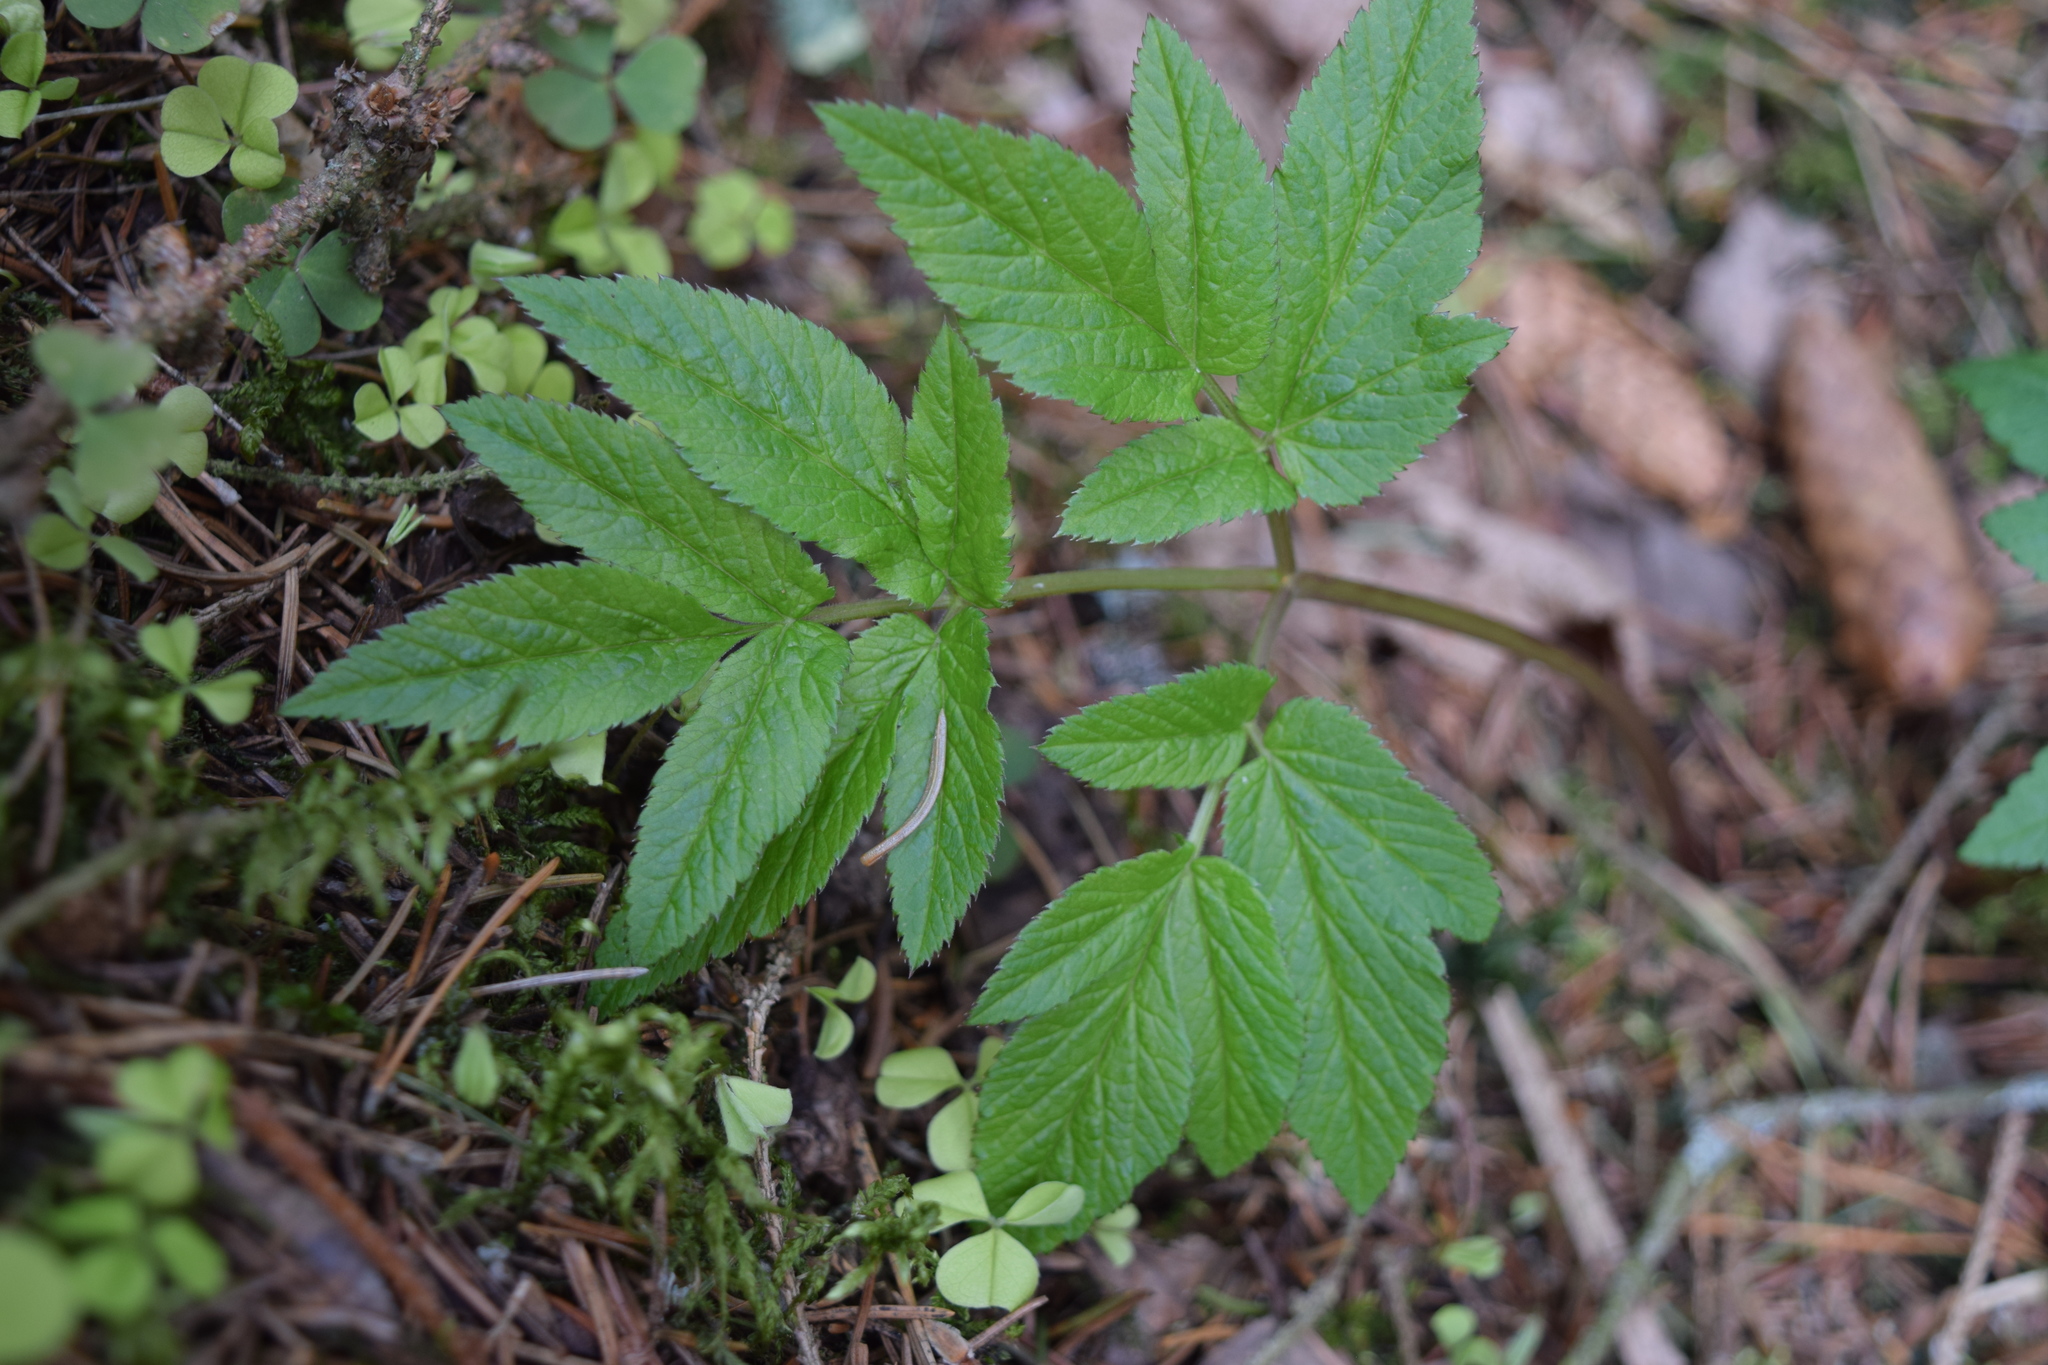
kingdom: Plantae
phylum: Tracheophyta
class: Magnoliopsida
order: Apiales
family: Apiaceae
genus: Aegopodium
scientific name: Aegopodium podagraria
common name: Ground-elder
